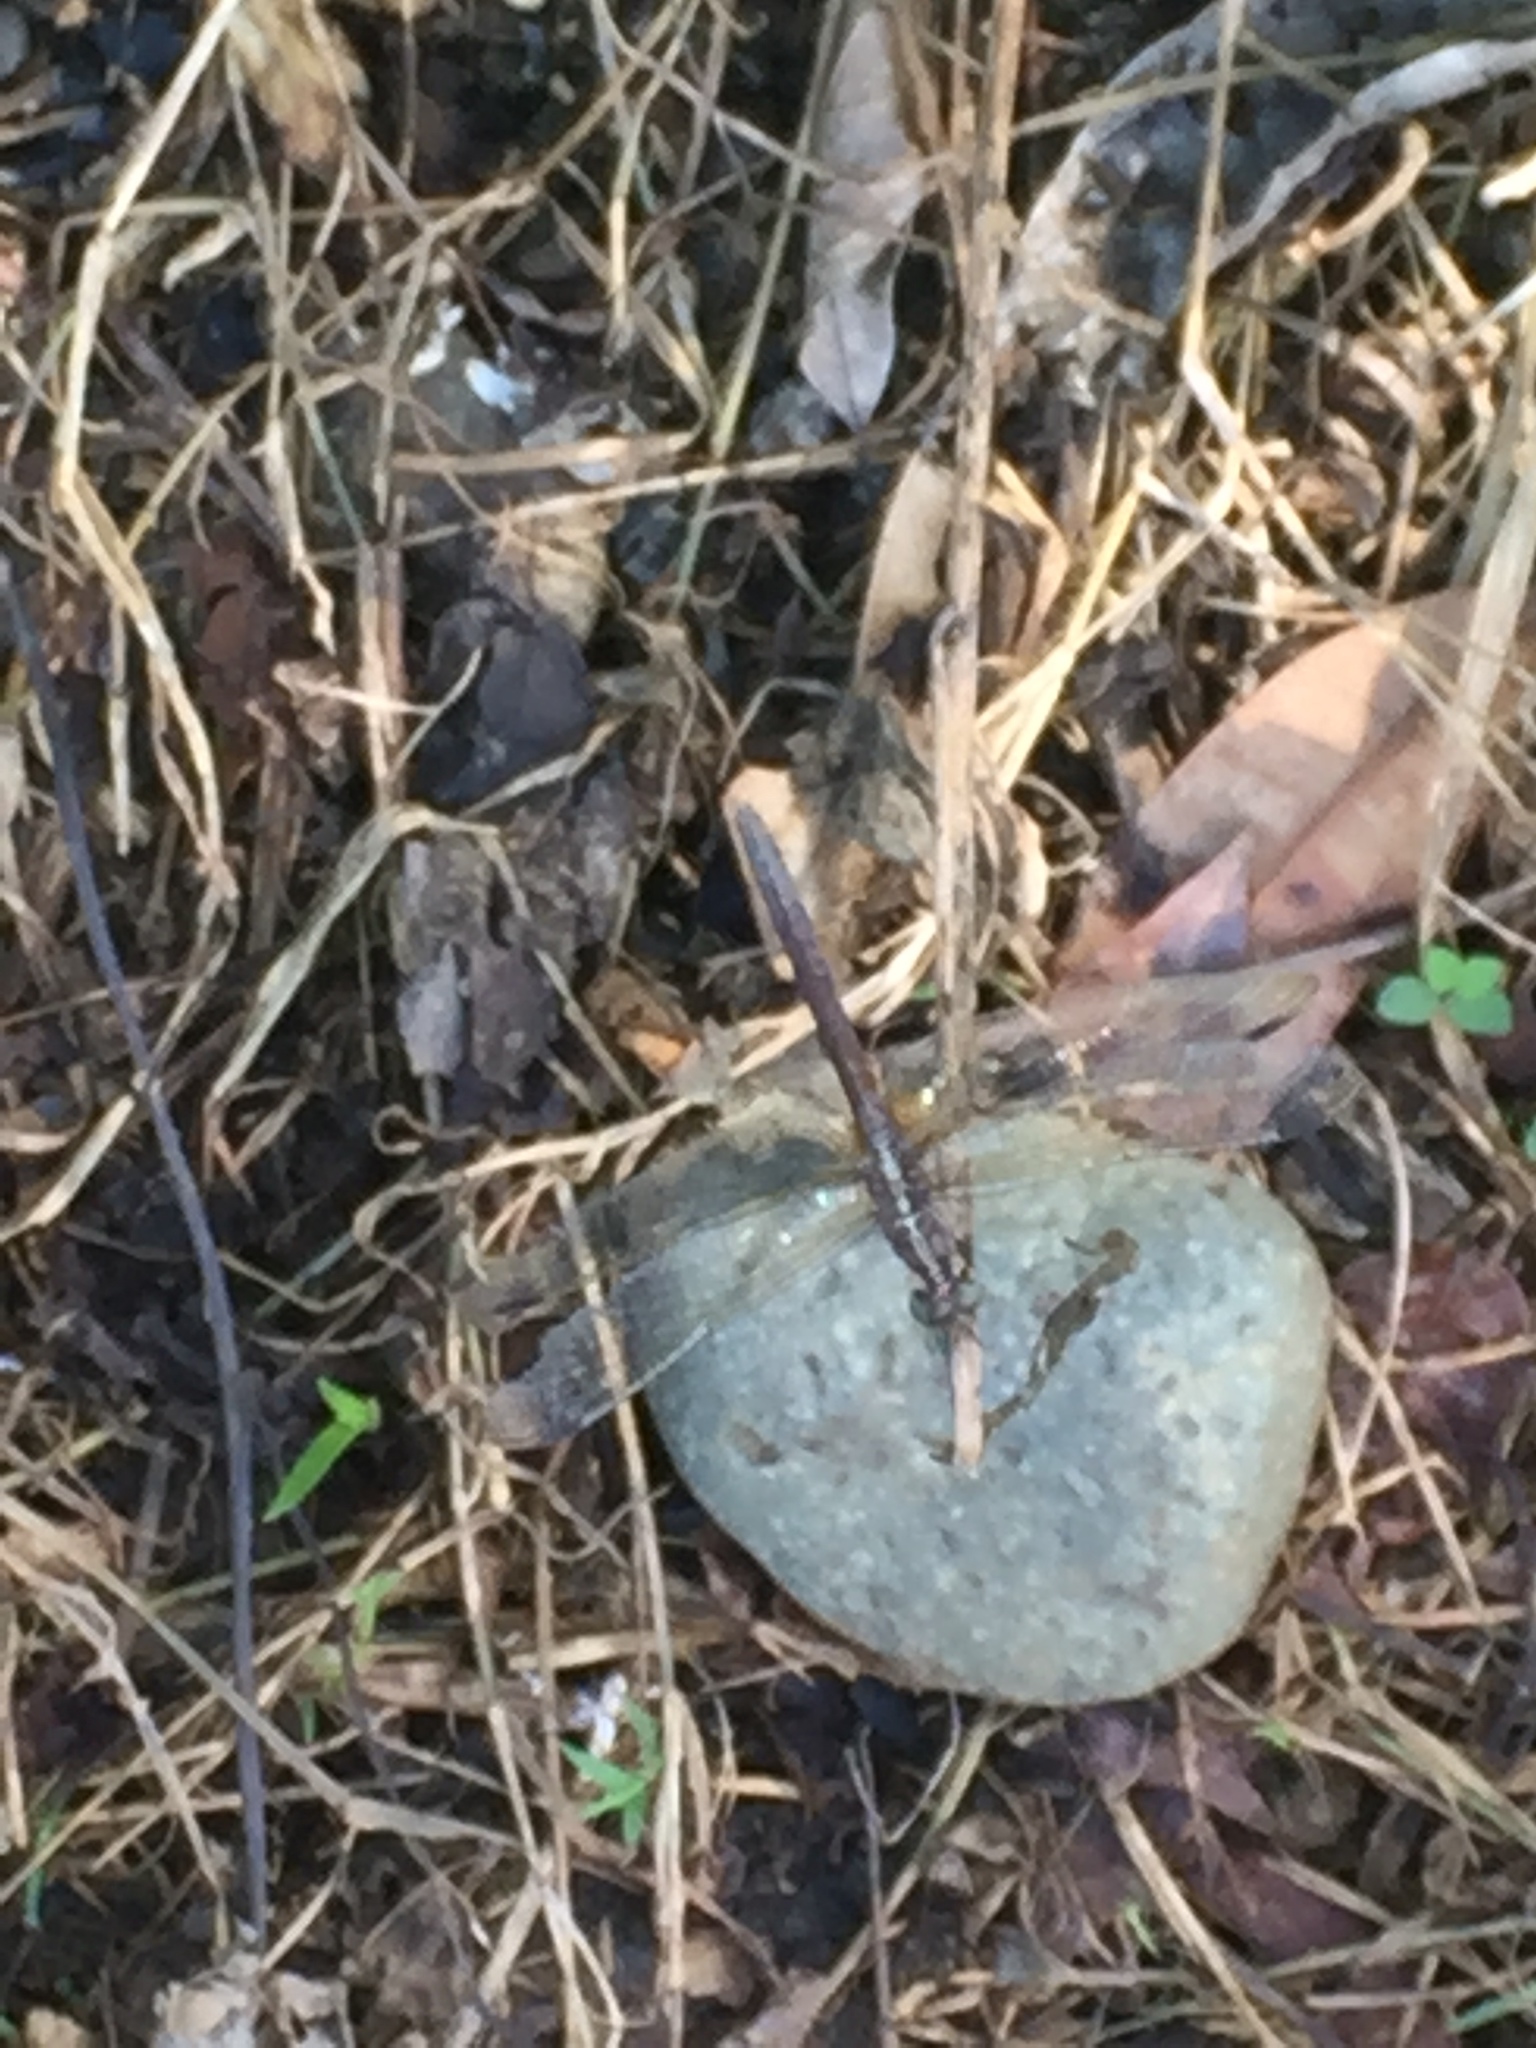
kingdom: Animalia
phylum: Arthropoda
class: Insecta
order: Odonata
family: Libellulidae
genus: Erythrodiplax
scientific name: Erythrodiplax umbrata
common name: Band-winged dragonlet
